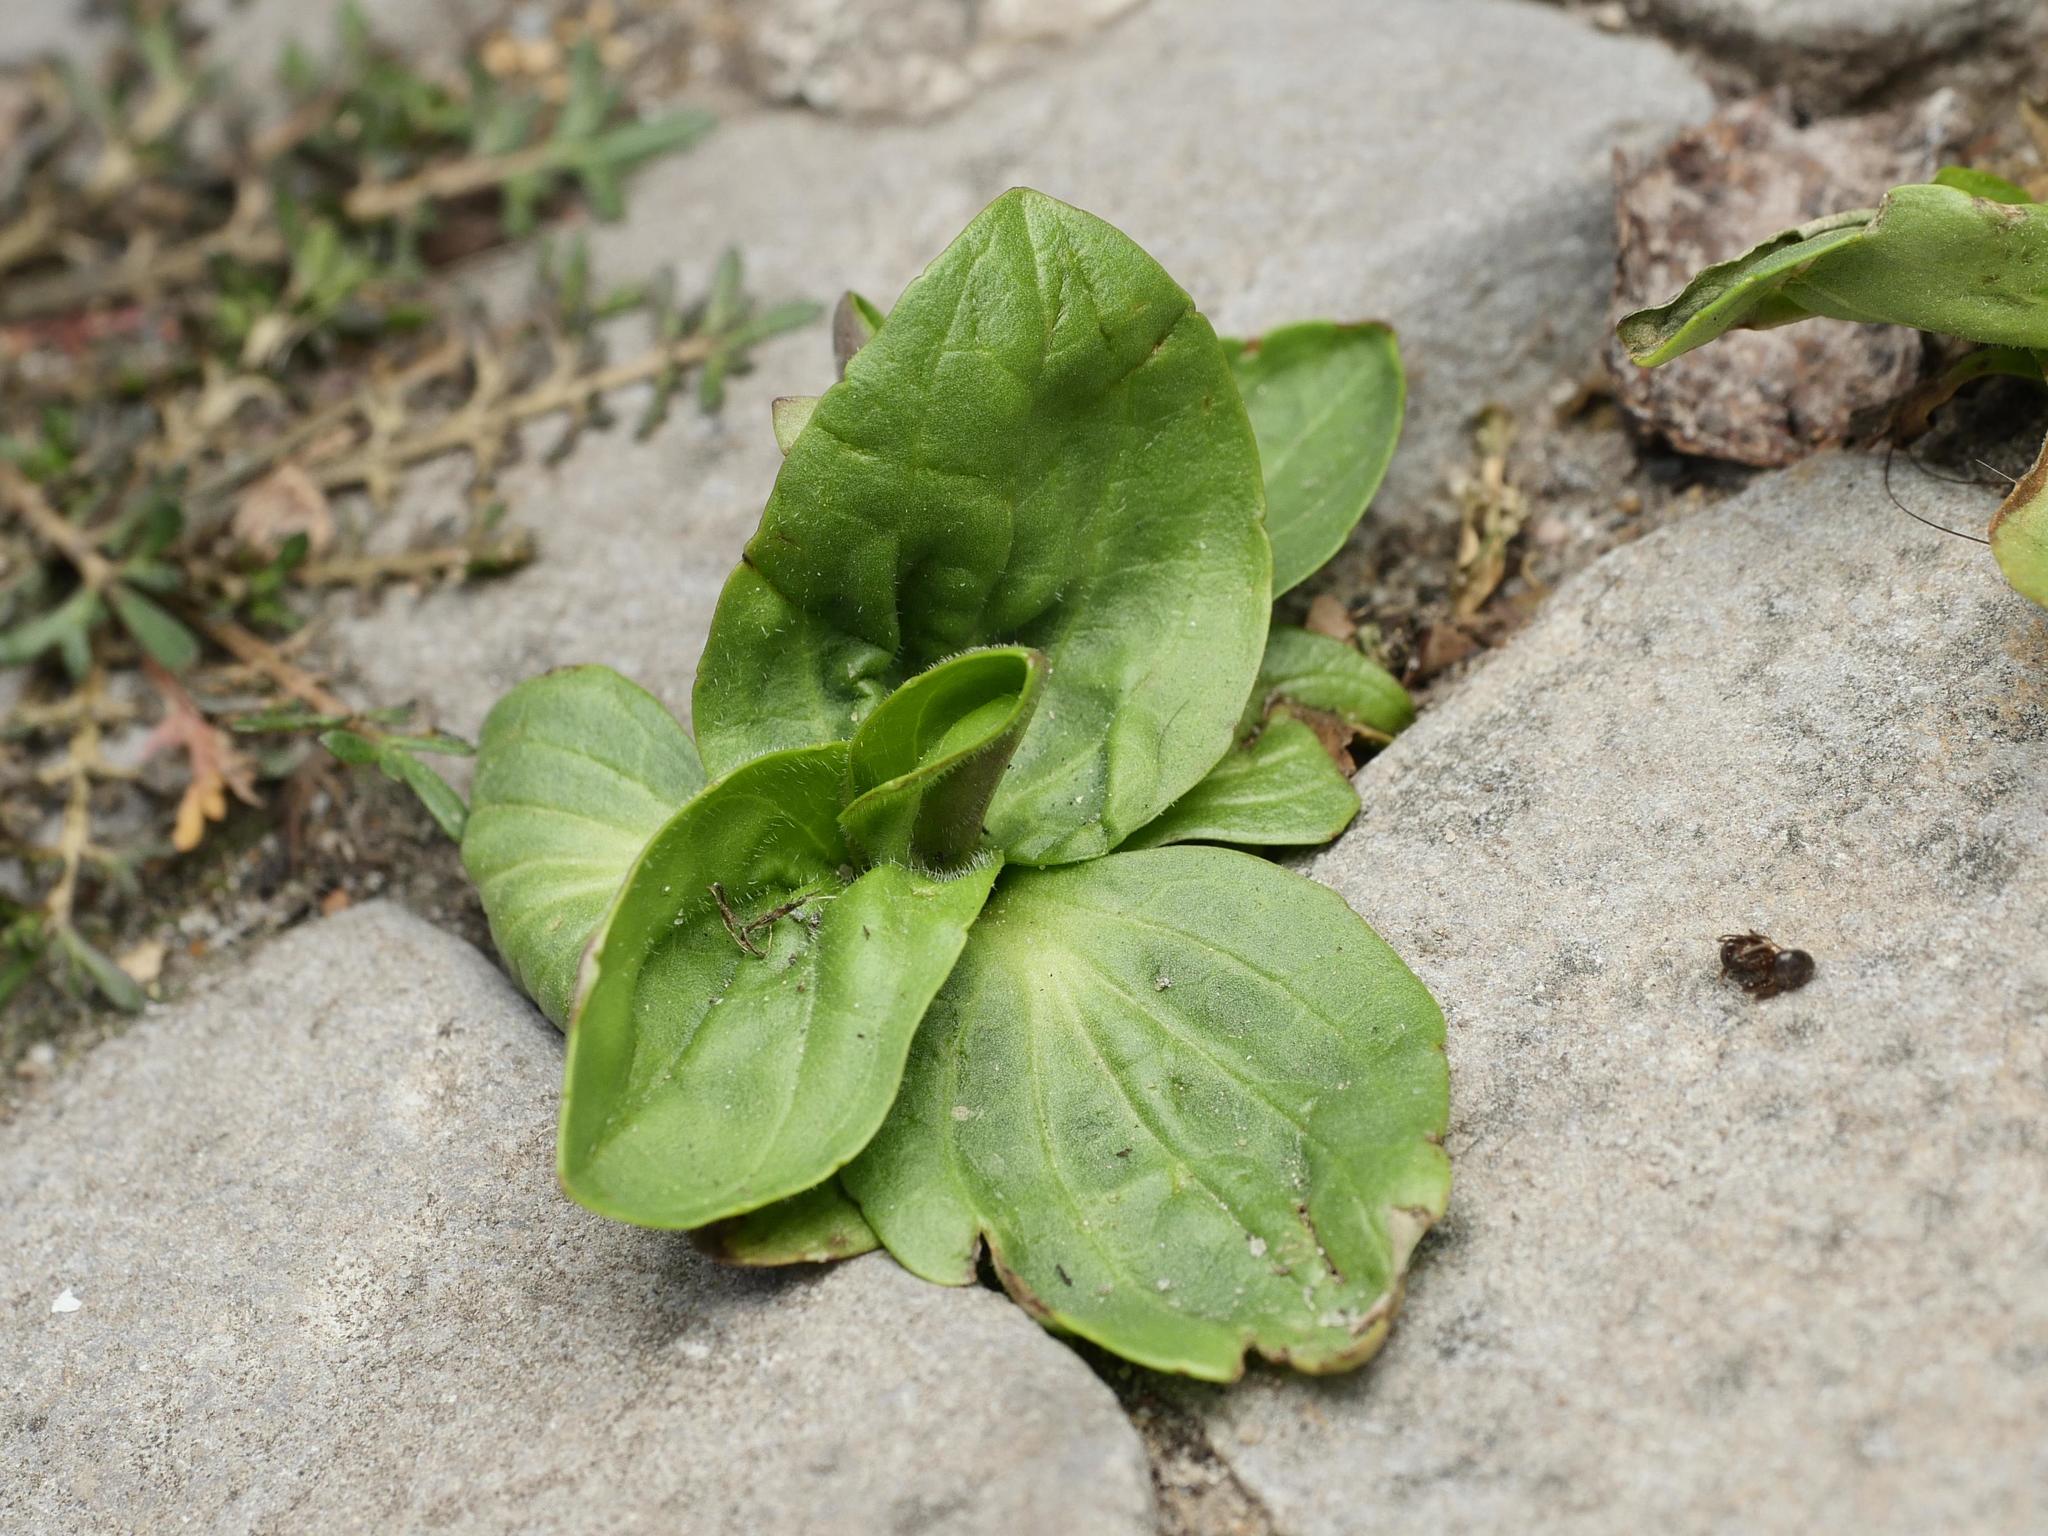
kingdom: Plantae
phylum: Tracheophyta
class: Magnoliopsida
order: Lamiales
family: Plantaginaceae
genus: Plantago
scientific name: Plantago major
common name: Common plantain
